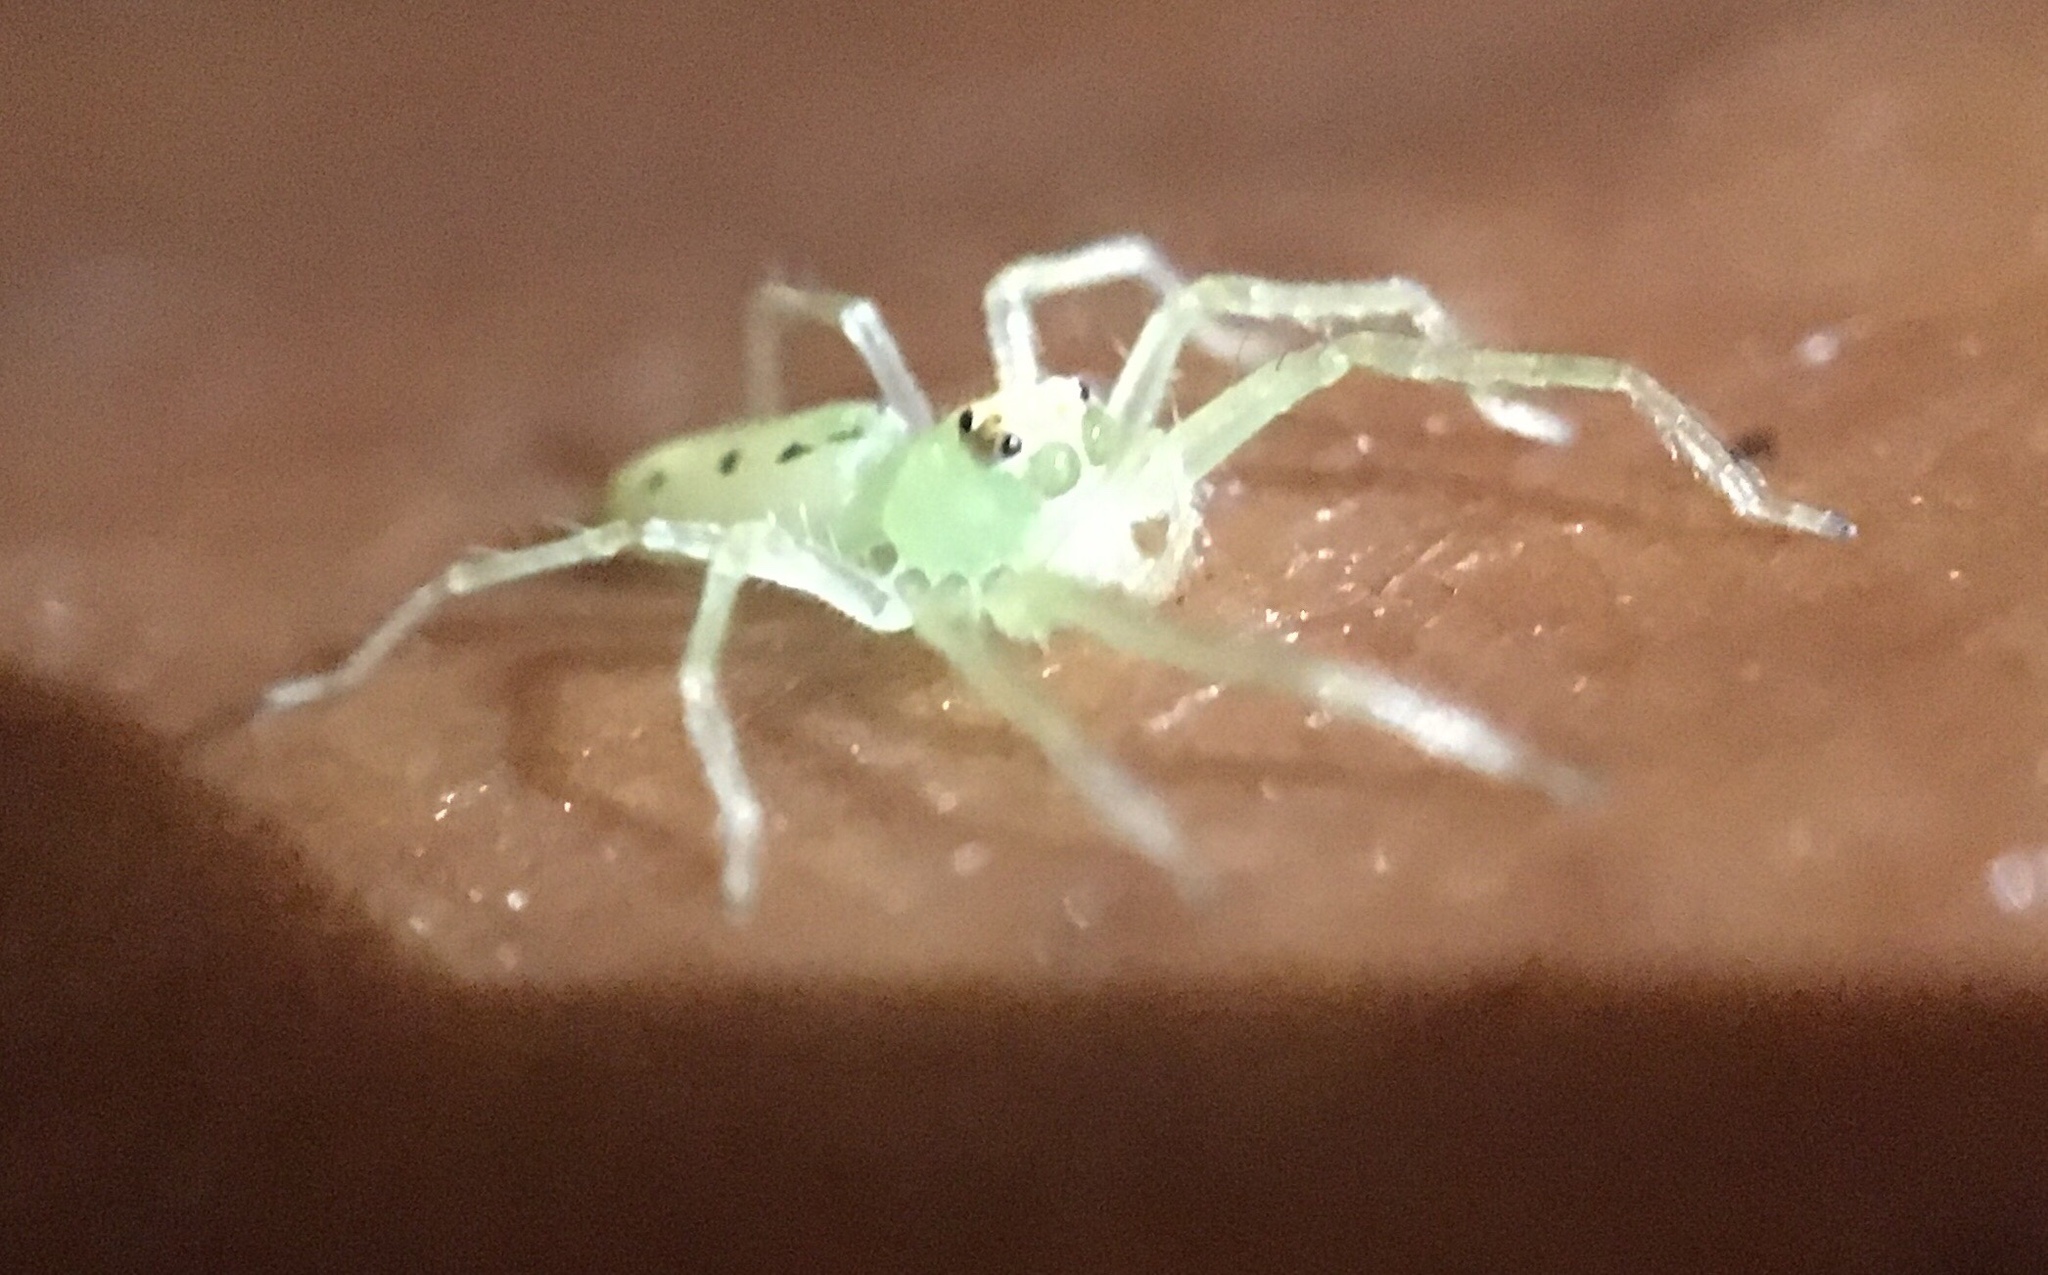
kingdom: Animalia
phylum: Arthropoda
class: Arachnida
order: Araneae
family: Salticidae
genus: Lyssomanes
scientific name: Lyssomanes viridis
